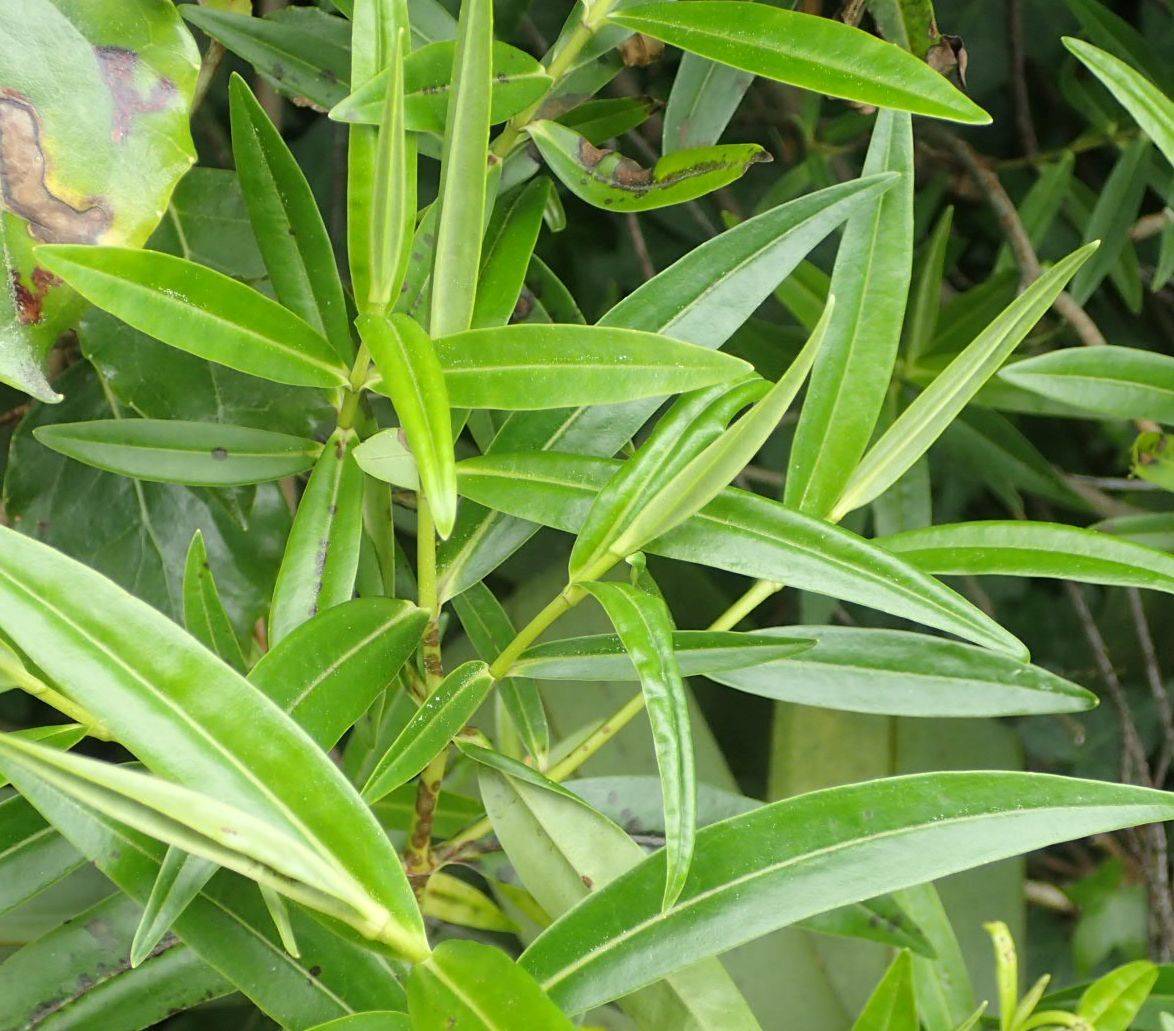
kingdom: Plantae
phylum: Tracheophyta
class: Magnoliopsida
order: Lamiales
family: Plantaginaceae
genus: Veronica
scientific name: Veronica salicifolia
